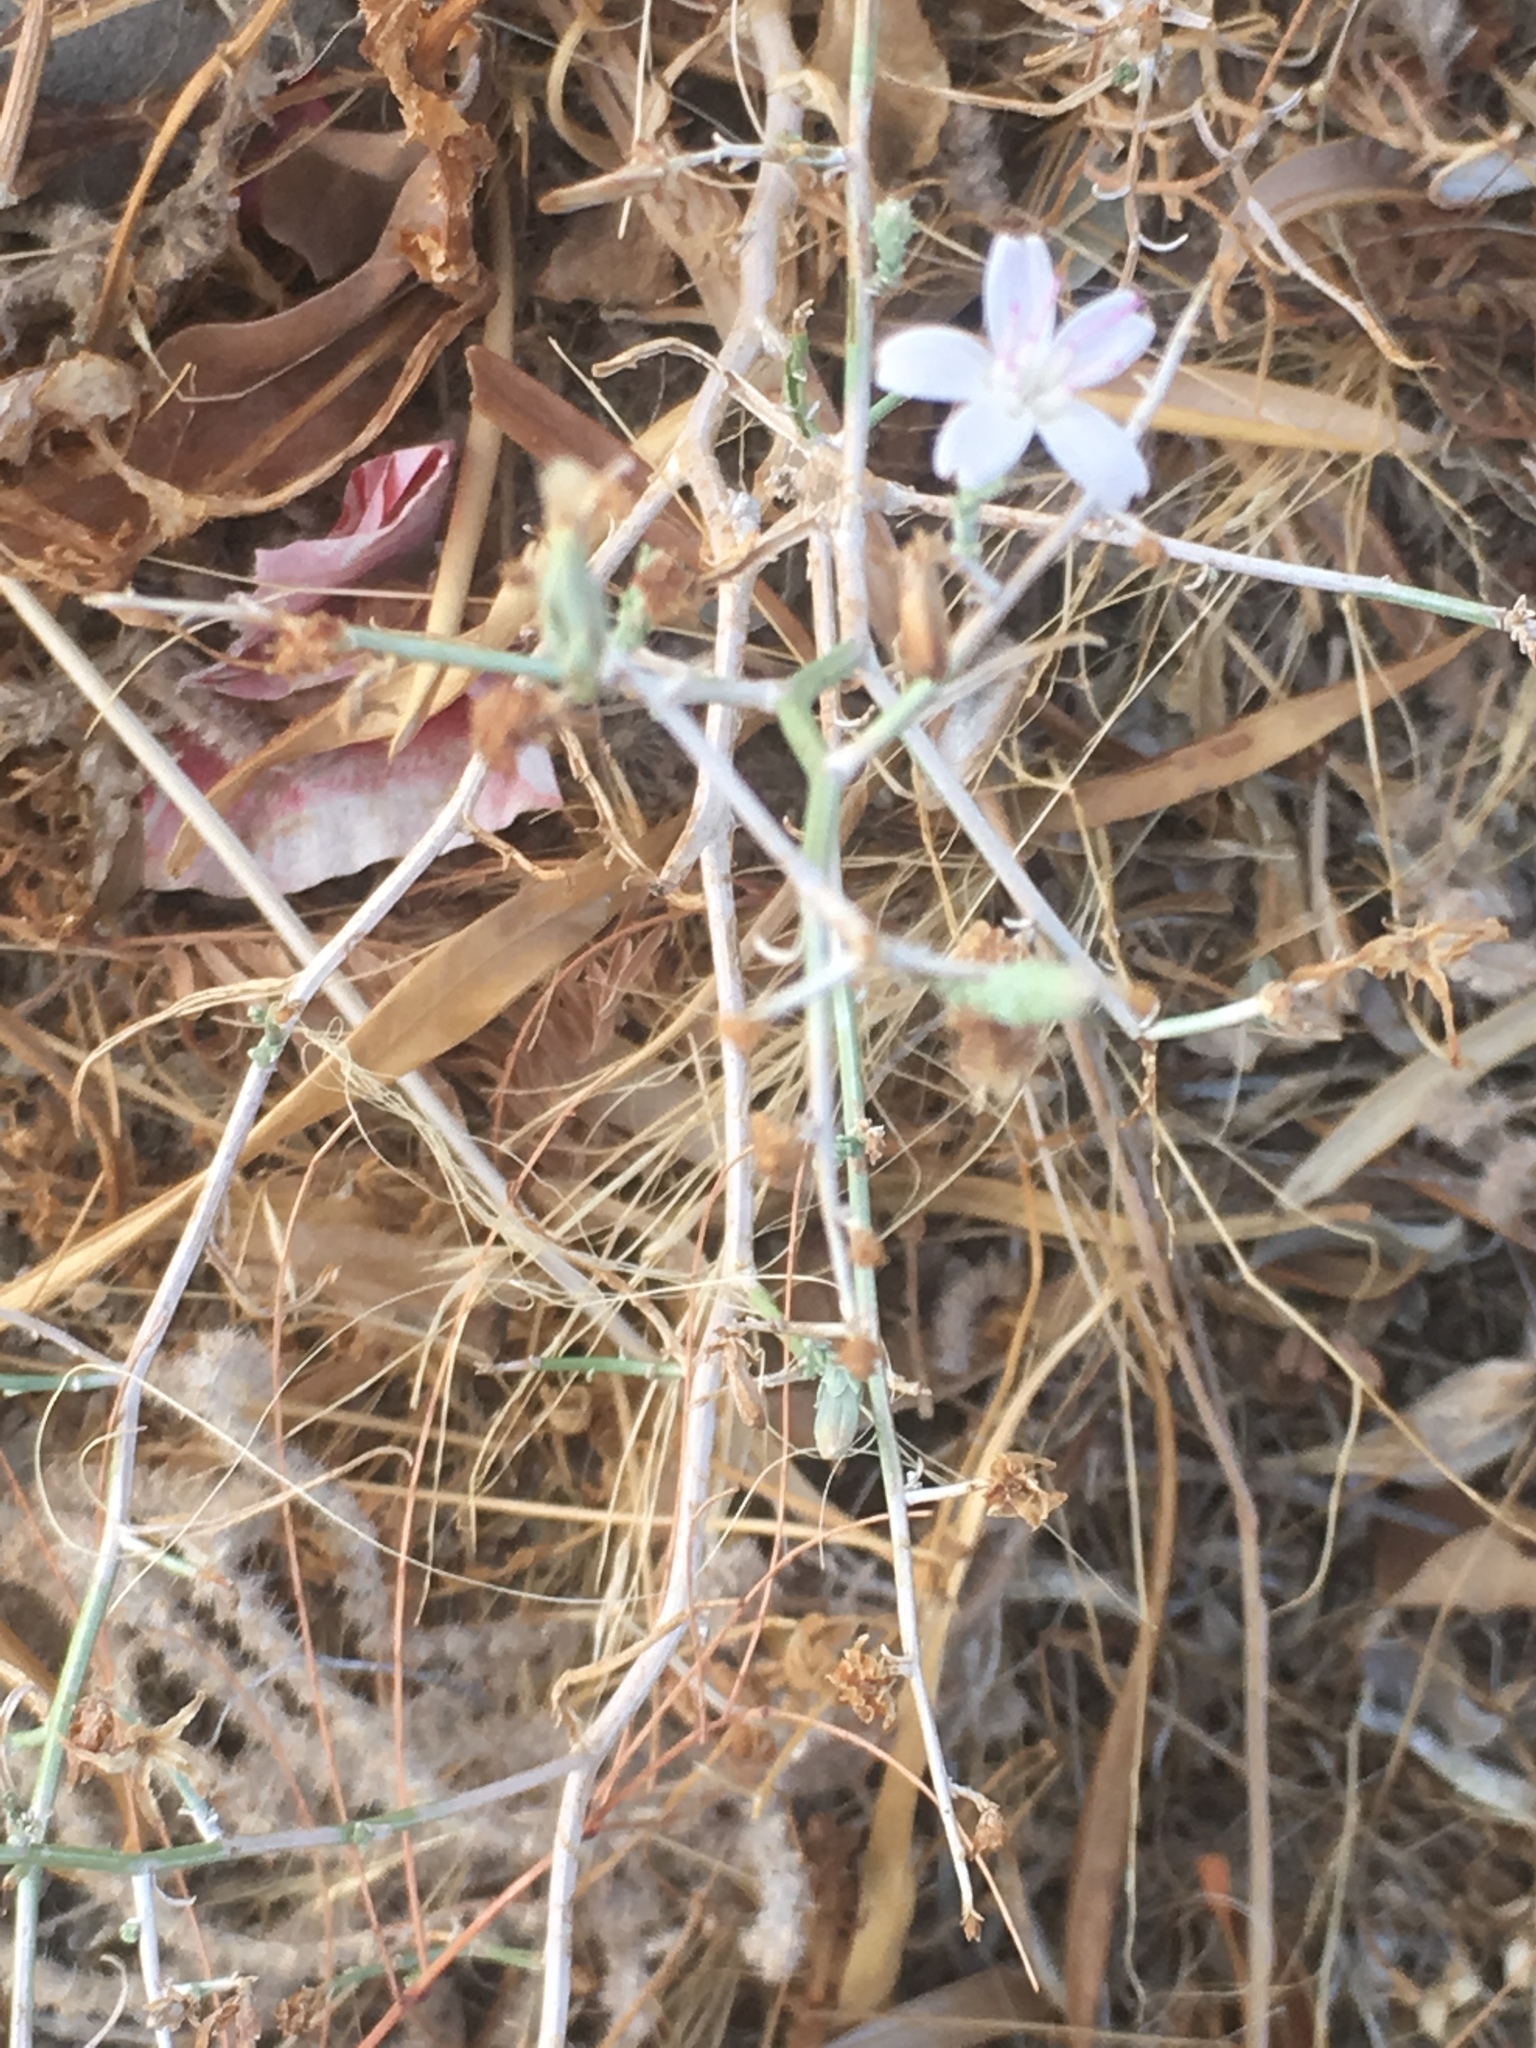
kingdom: Plantae
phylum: Tracheophyta
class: Magnoliopsida
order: Asterales
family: Asteraceae
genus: Stephanomeria
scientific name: Stephanomeria pauciflora
